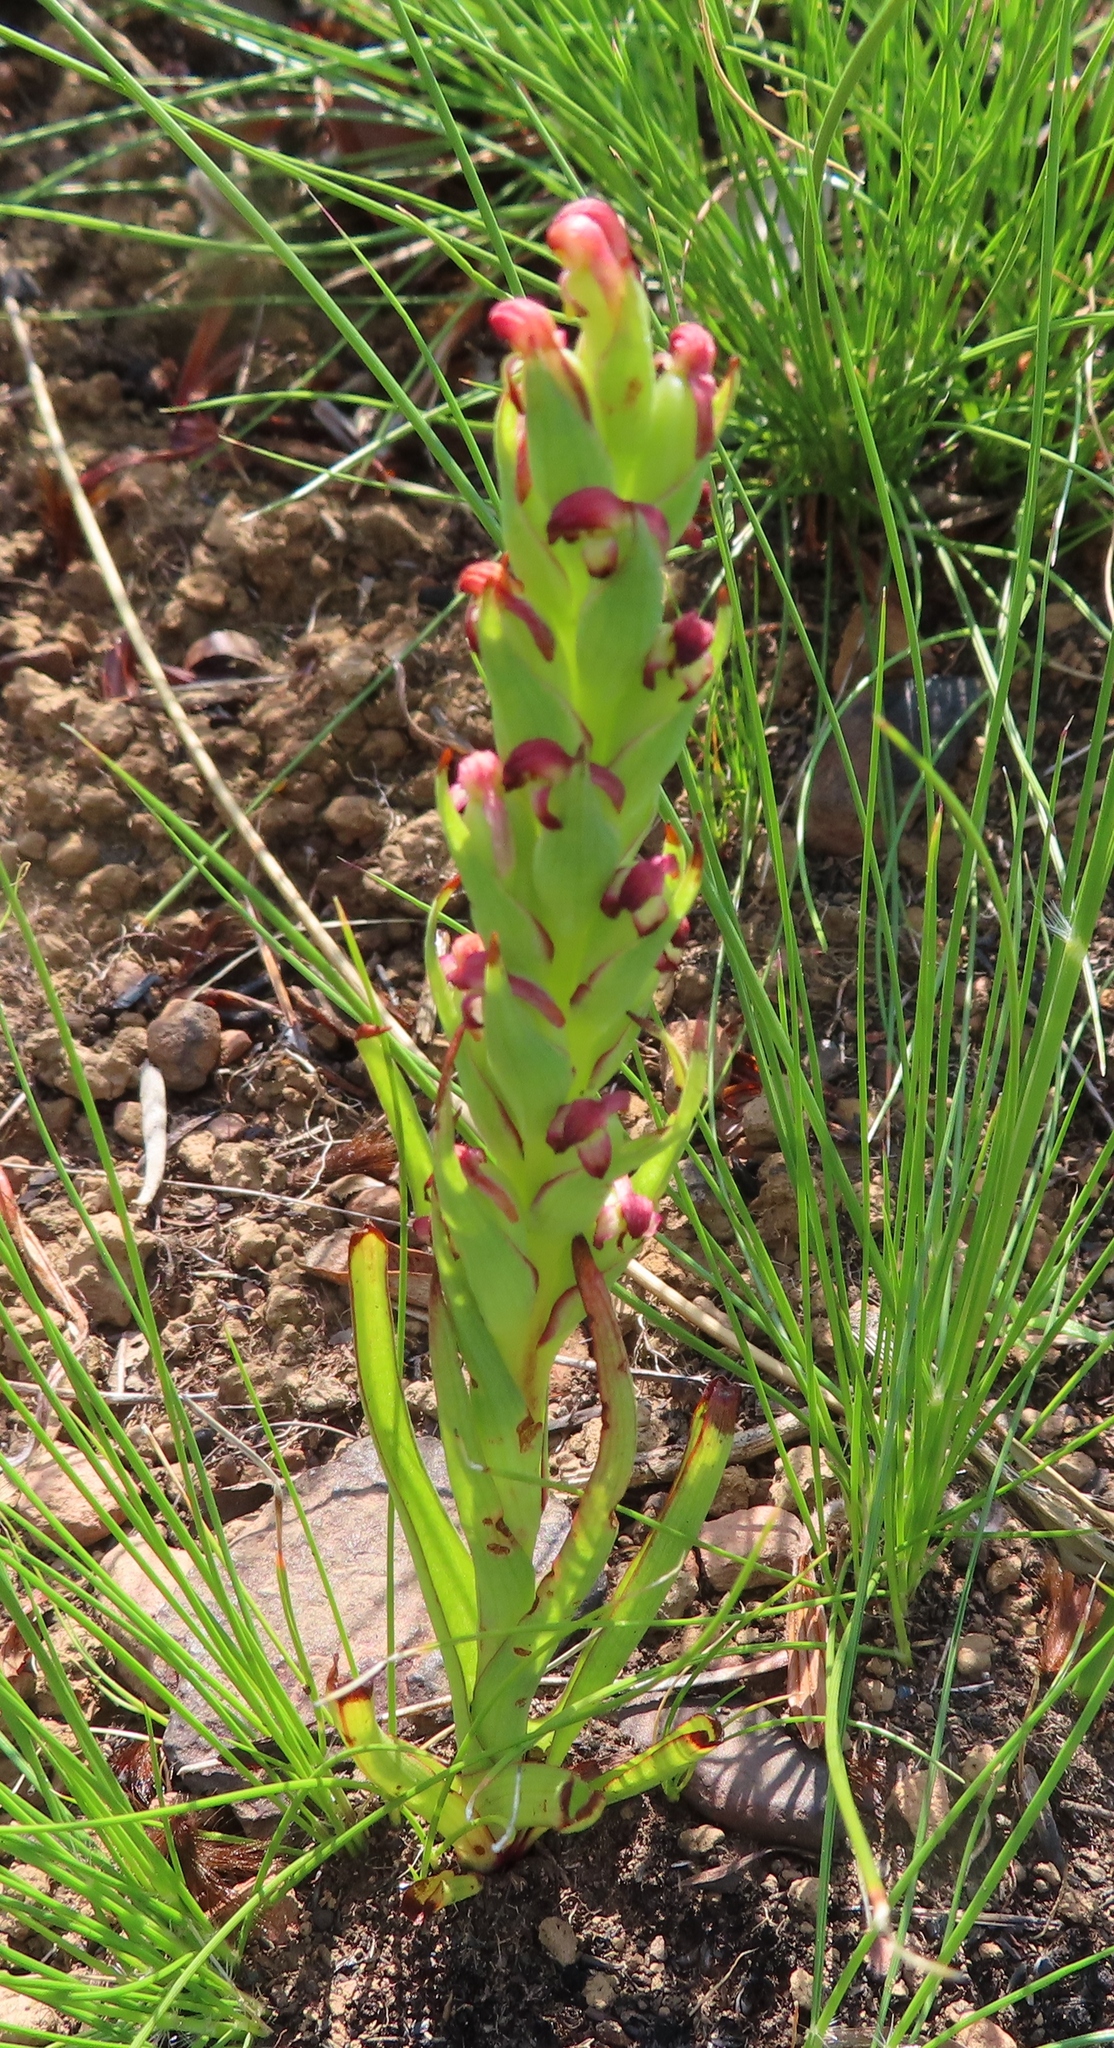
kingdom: Plantae
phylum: Tracheophyta
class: Liliopsida
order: Asparagales
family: Orchidaceae
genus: Disa
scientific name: Disa bracteata
